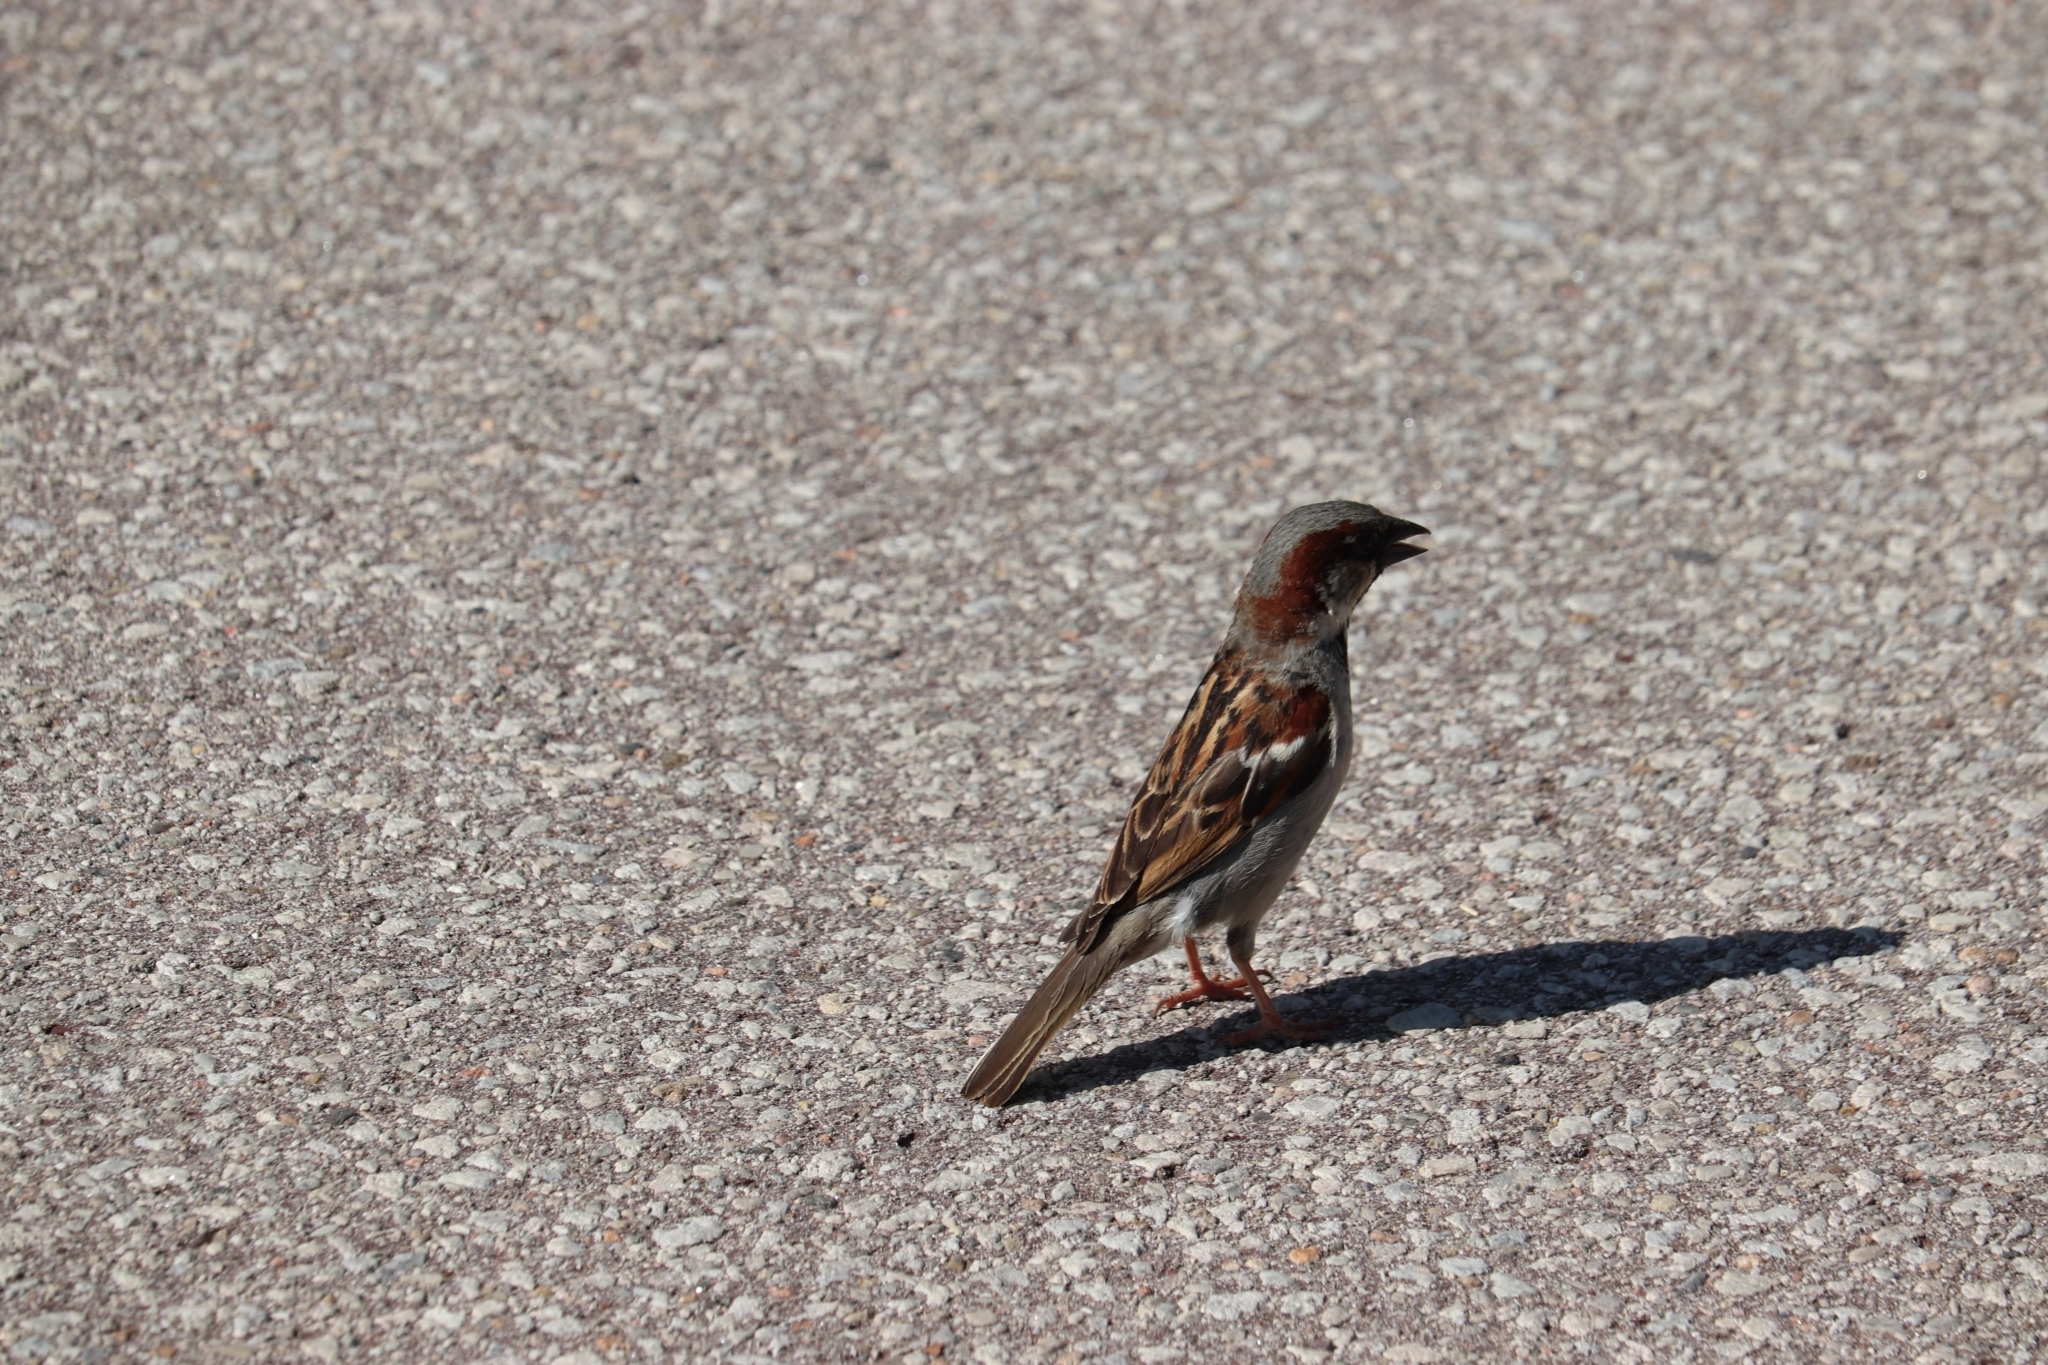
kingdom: Animalia
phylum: Chordata
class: Aves
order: Passeriformes
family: Passeridae
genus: Passer
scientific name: Passer domesticus
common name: House sparrow
